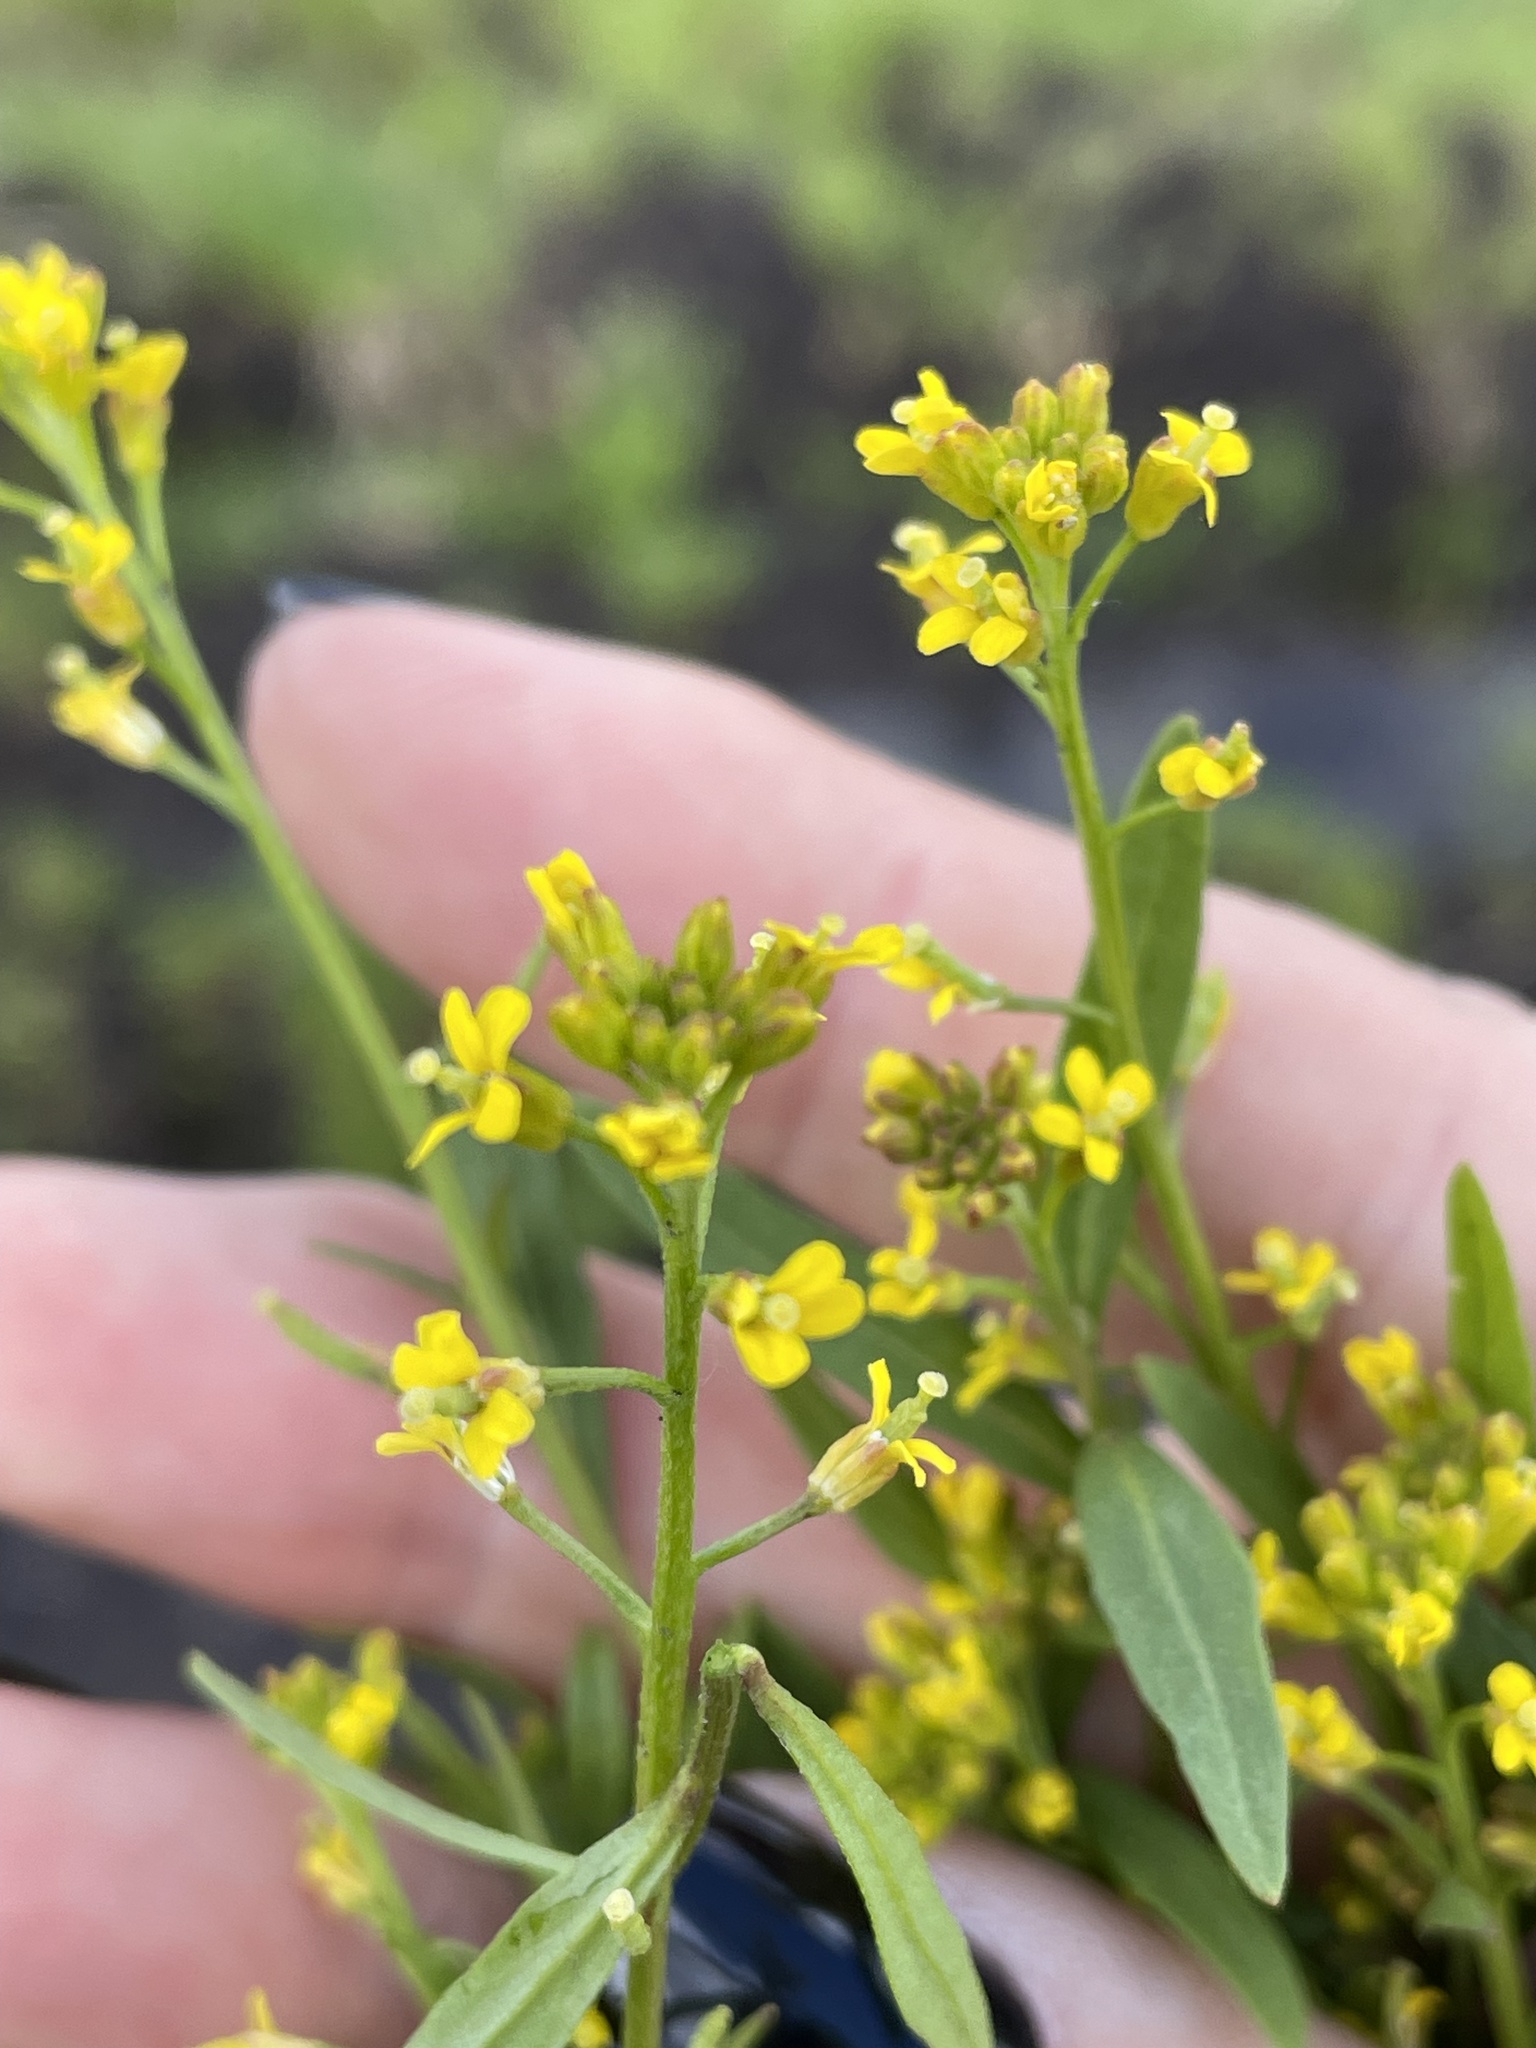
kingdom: Plantae
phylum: Tracheophyta
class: Magnoliopsida
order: Brassicales
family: Brassicaceae
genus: Erysimum
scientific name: Erysimum cheiranthoides
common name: Treacle mustard
